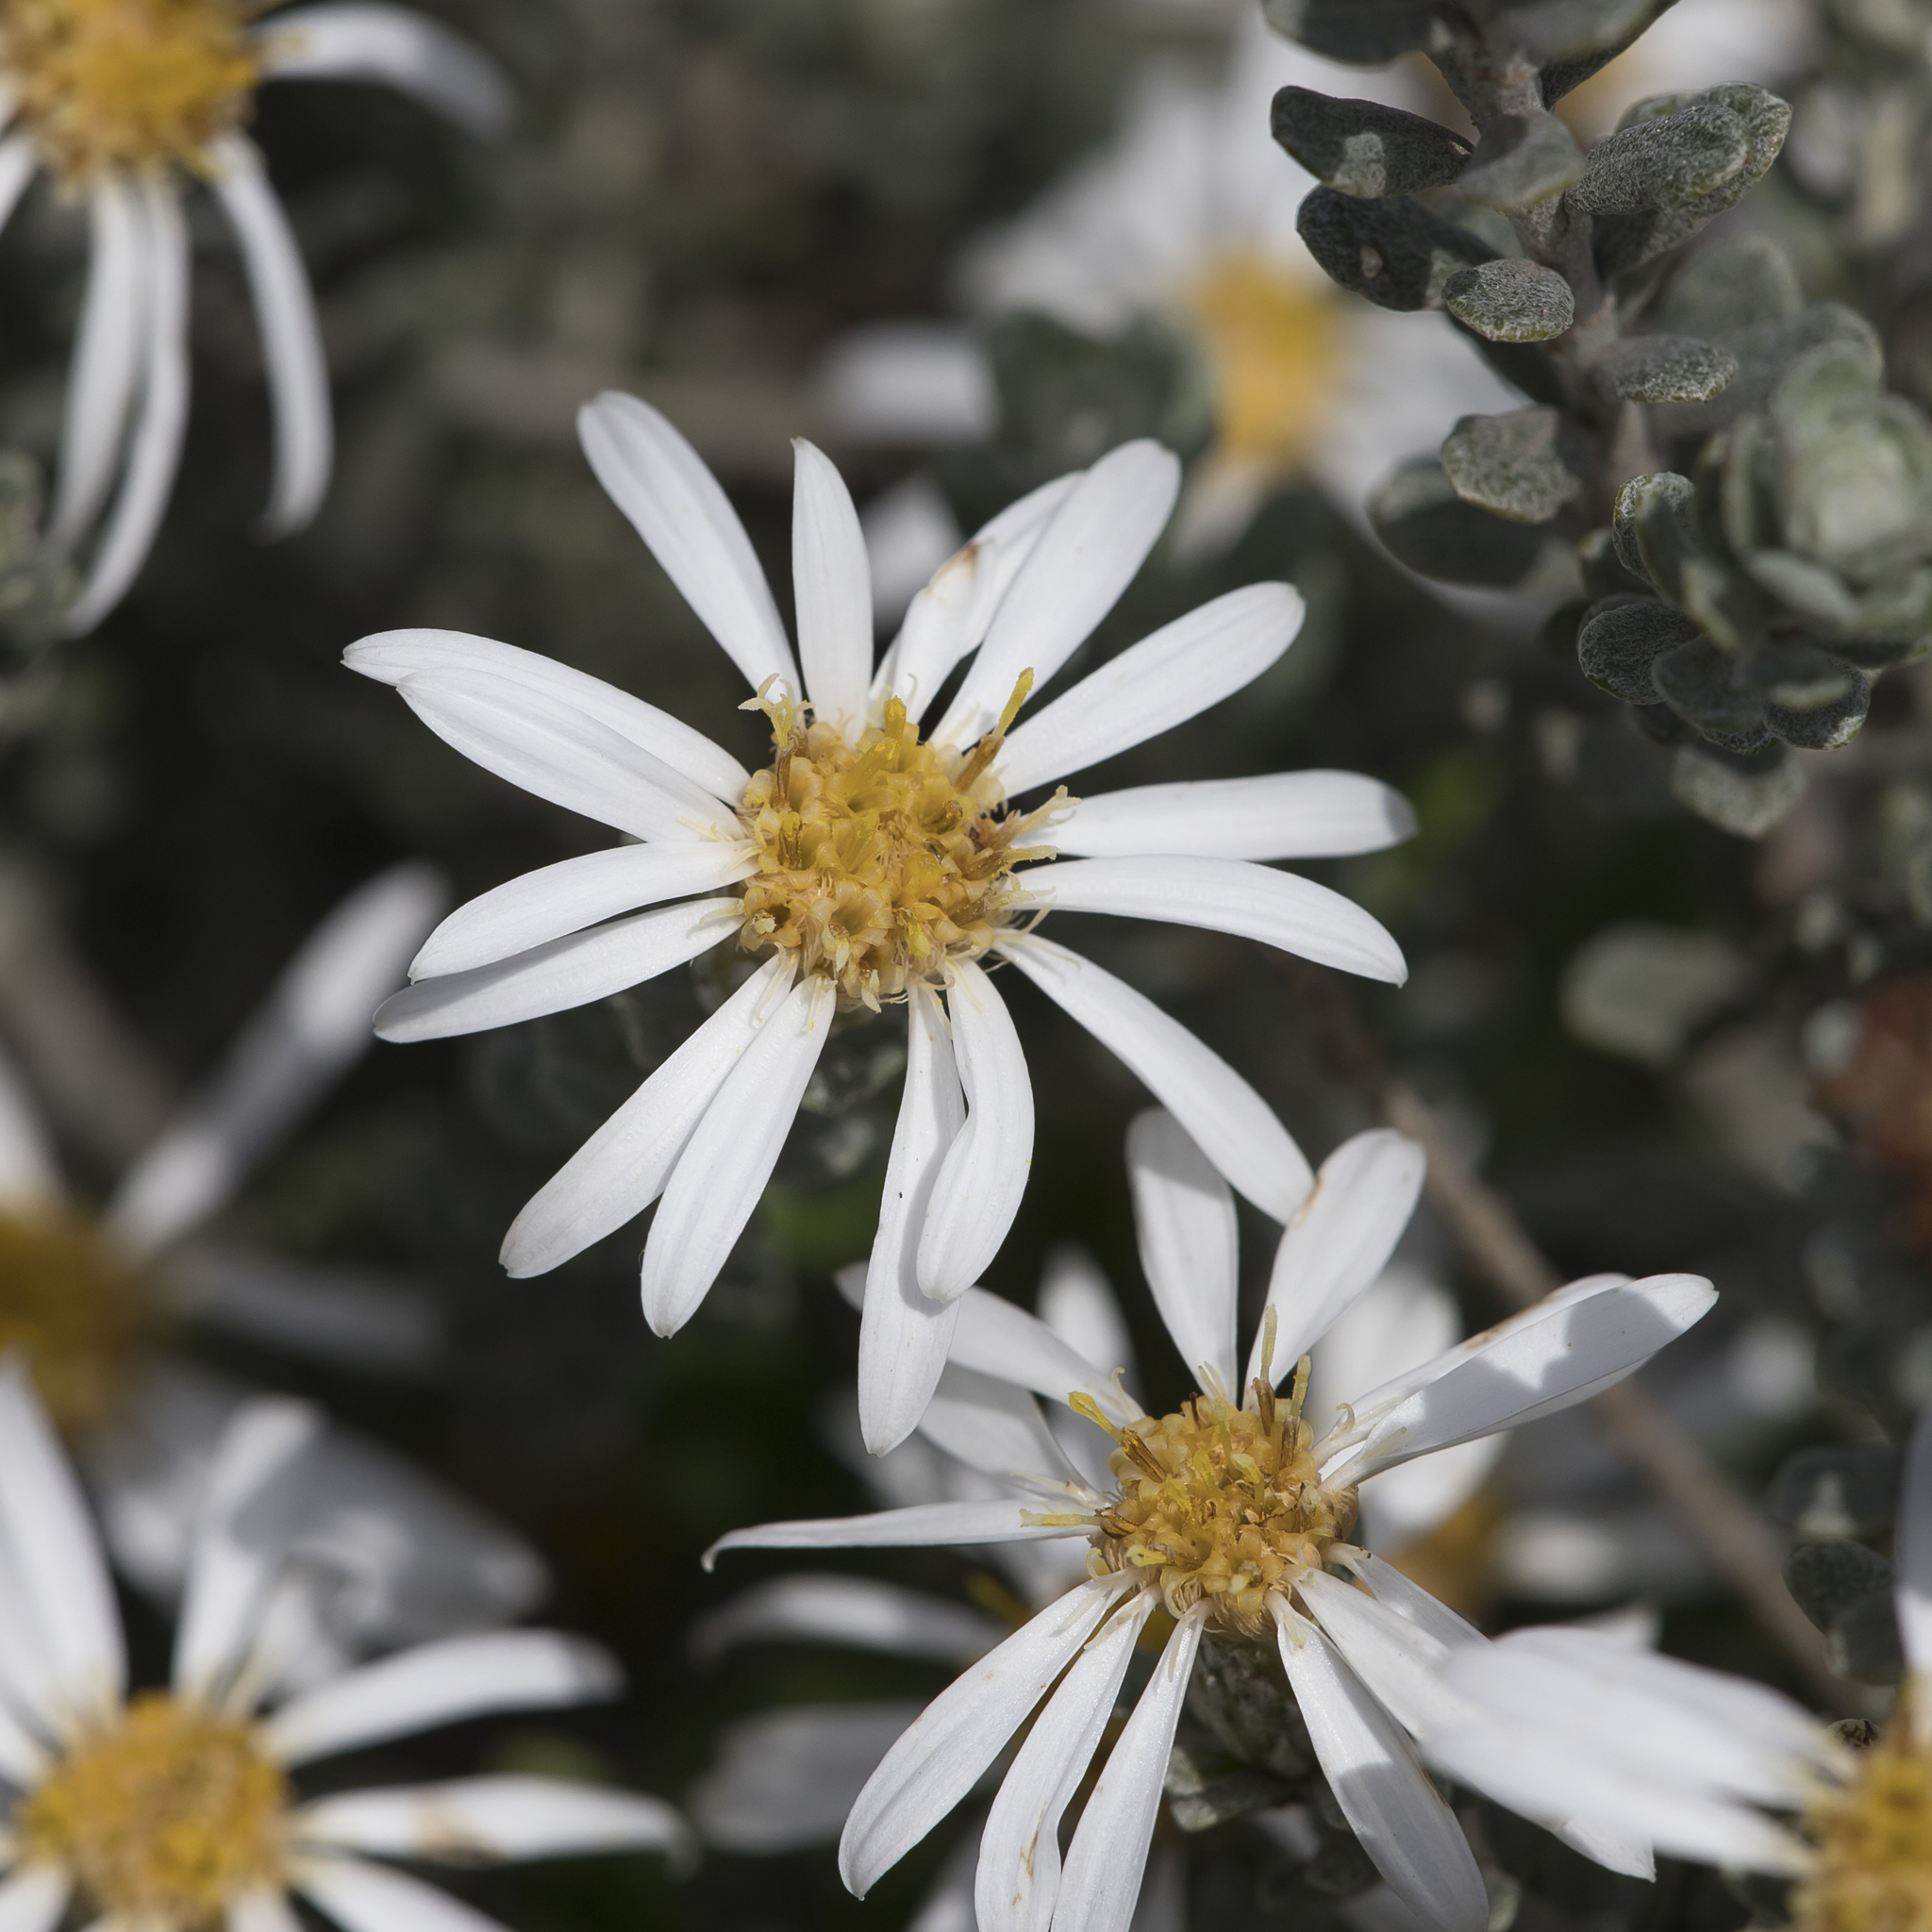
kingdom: Plantae
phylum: Tracheophyta
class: Magnoliopsida
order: Asterales
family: Asteraceae
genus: Olearia
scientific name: Olearia pimeleoides
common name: Showy daisybush
